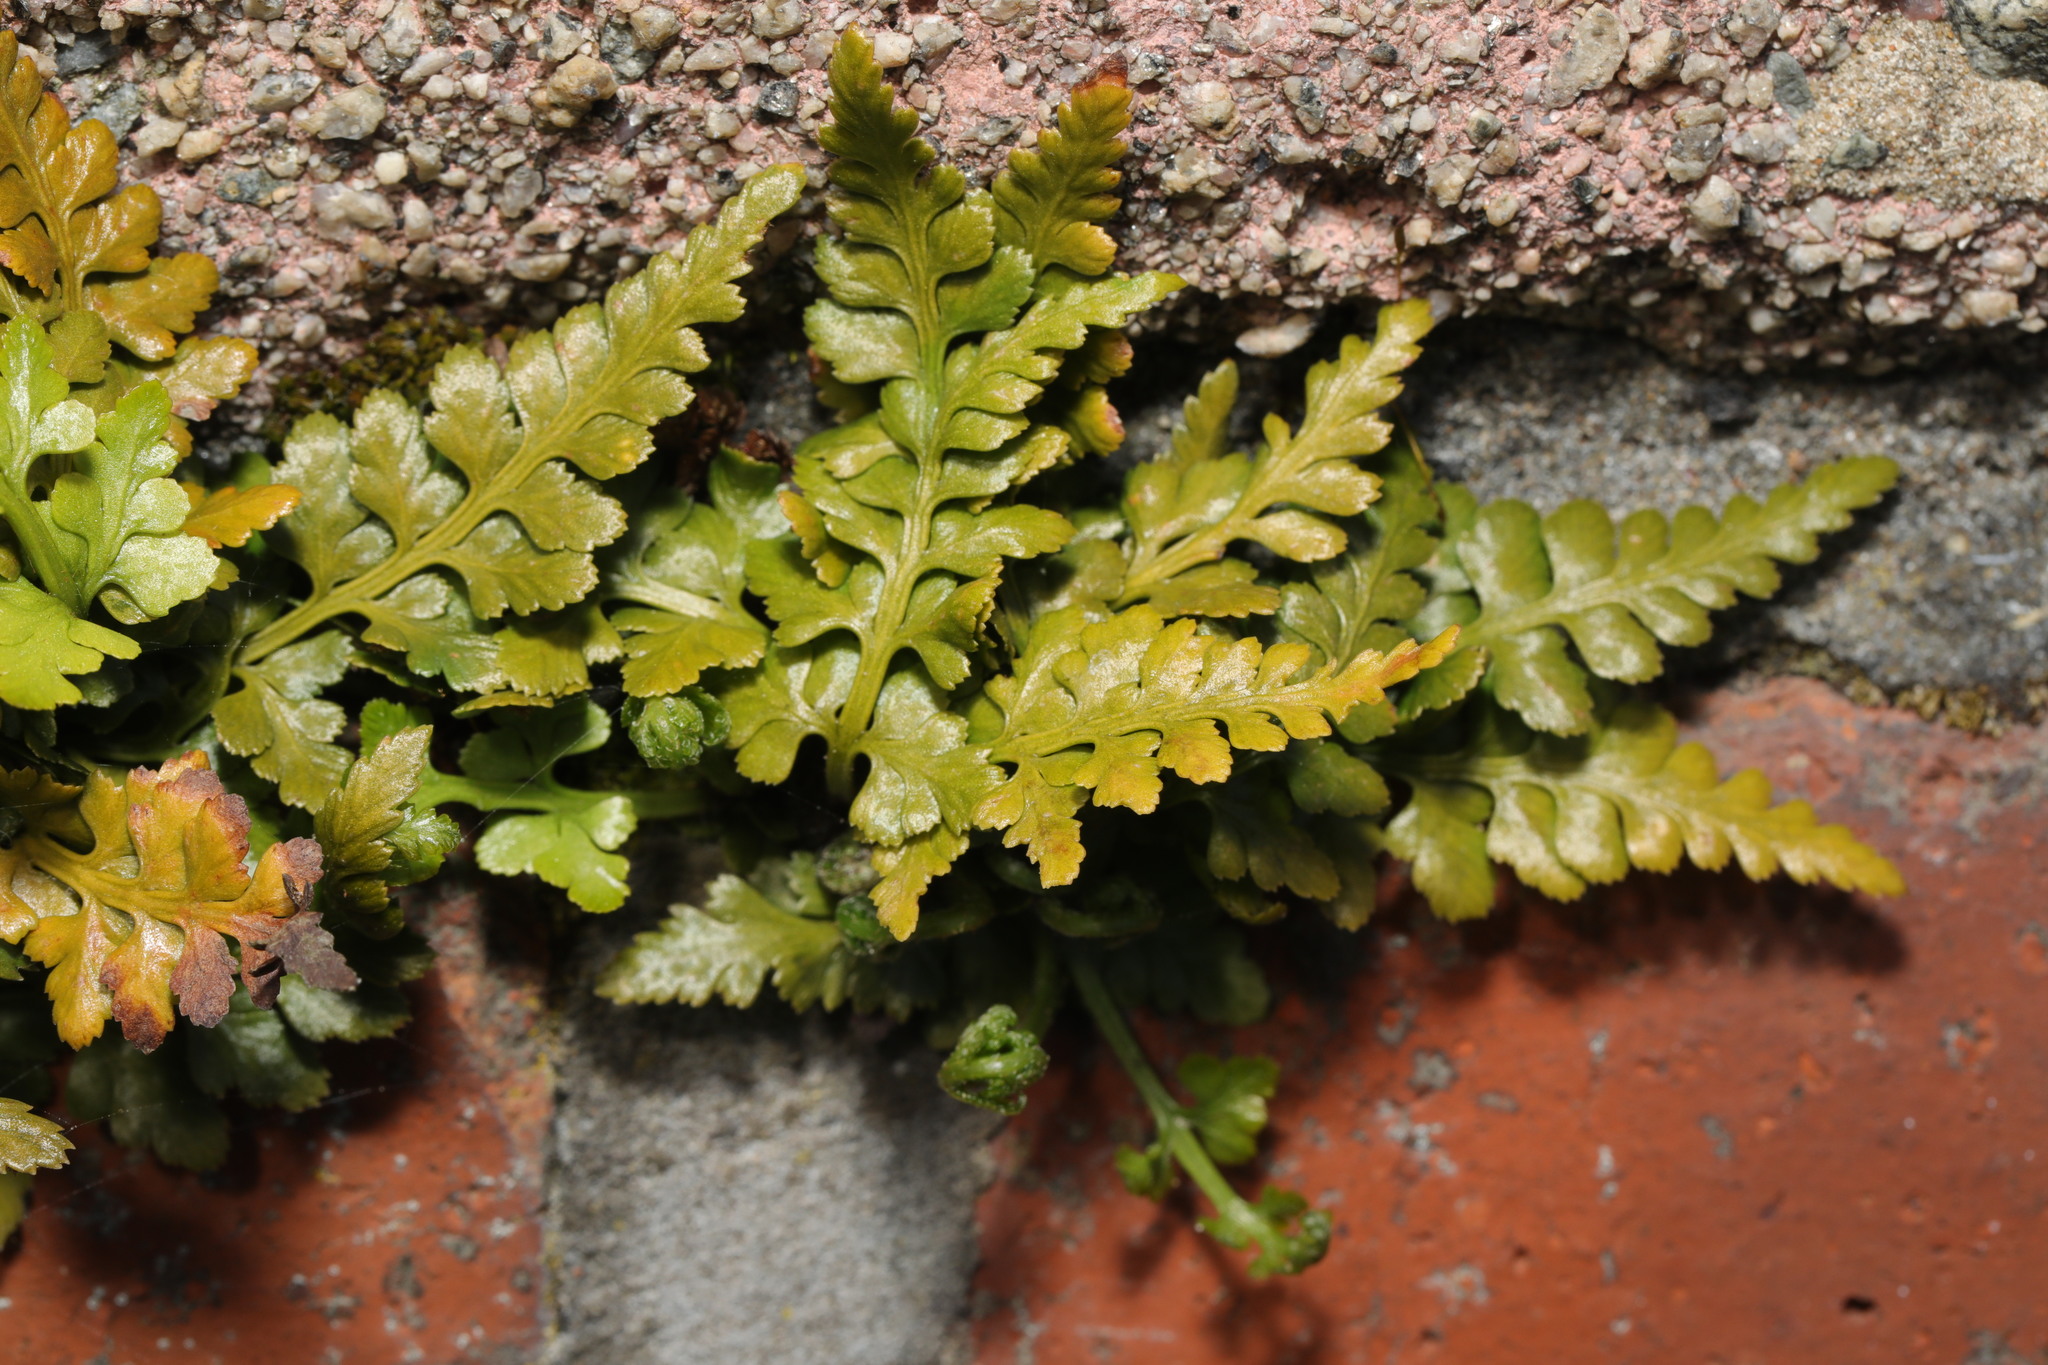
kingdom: Plantae
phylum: Tracheophyta
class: Polypodiopsida
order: Polypodiales
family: Aspleniaceae
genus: Asplenium
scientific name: Asplenium adiantum-nigrum
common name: Black spleenwort
